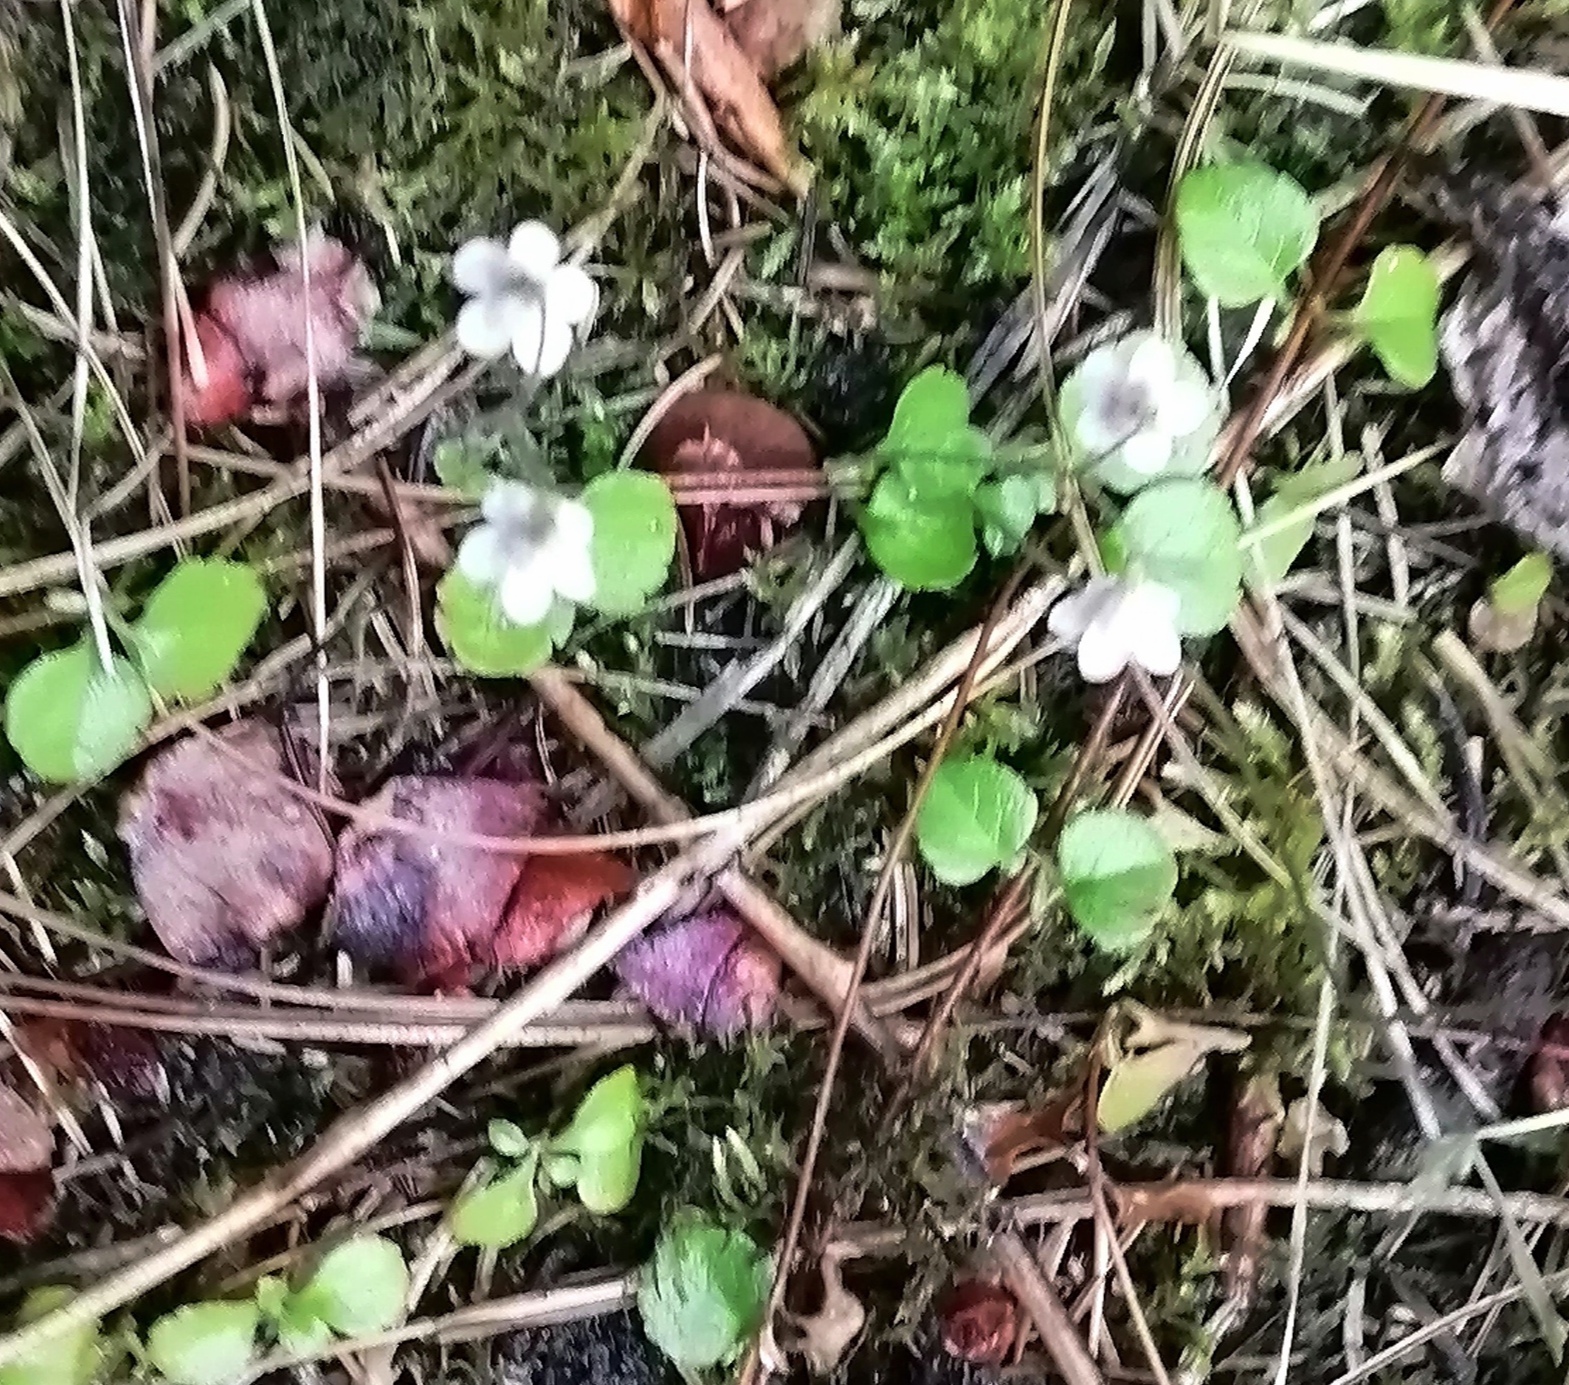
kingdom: Plantae
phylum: Tracheophyta
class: Magnoliopsida
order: Dipsacales
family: Caprifoliaceae
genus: Linnaea
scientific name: Linnaea borealis
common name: Twinflower
